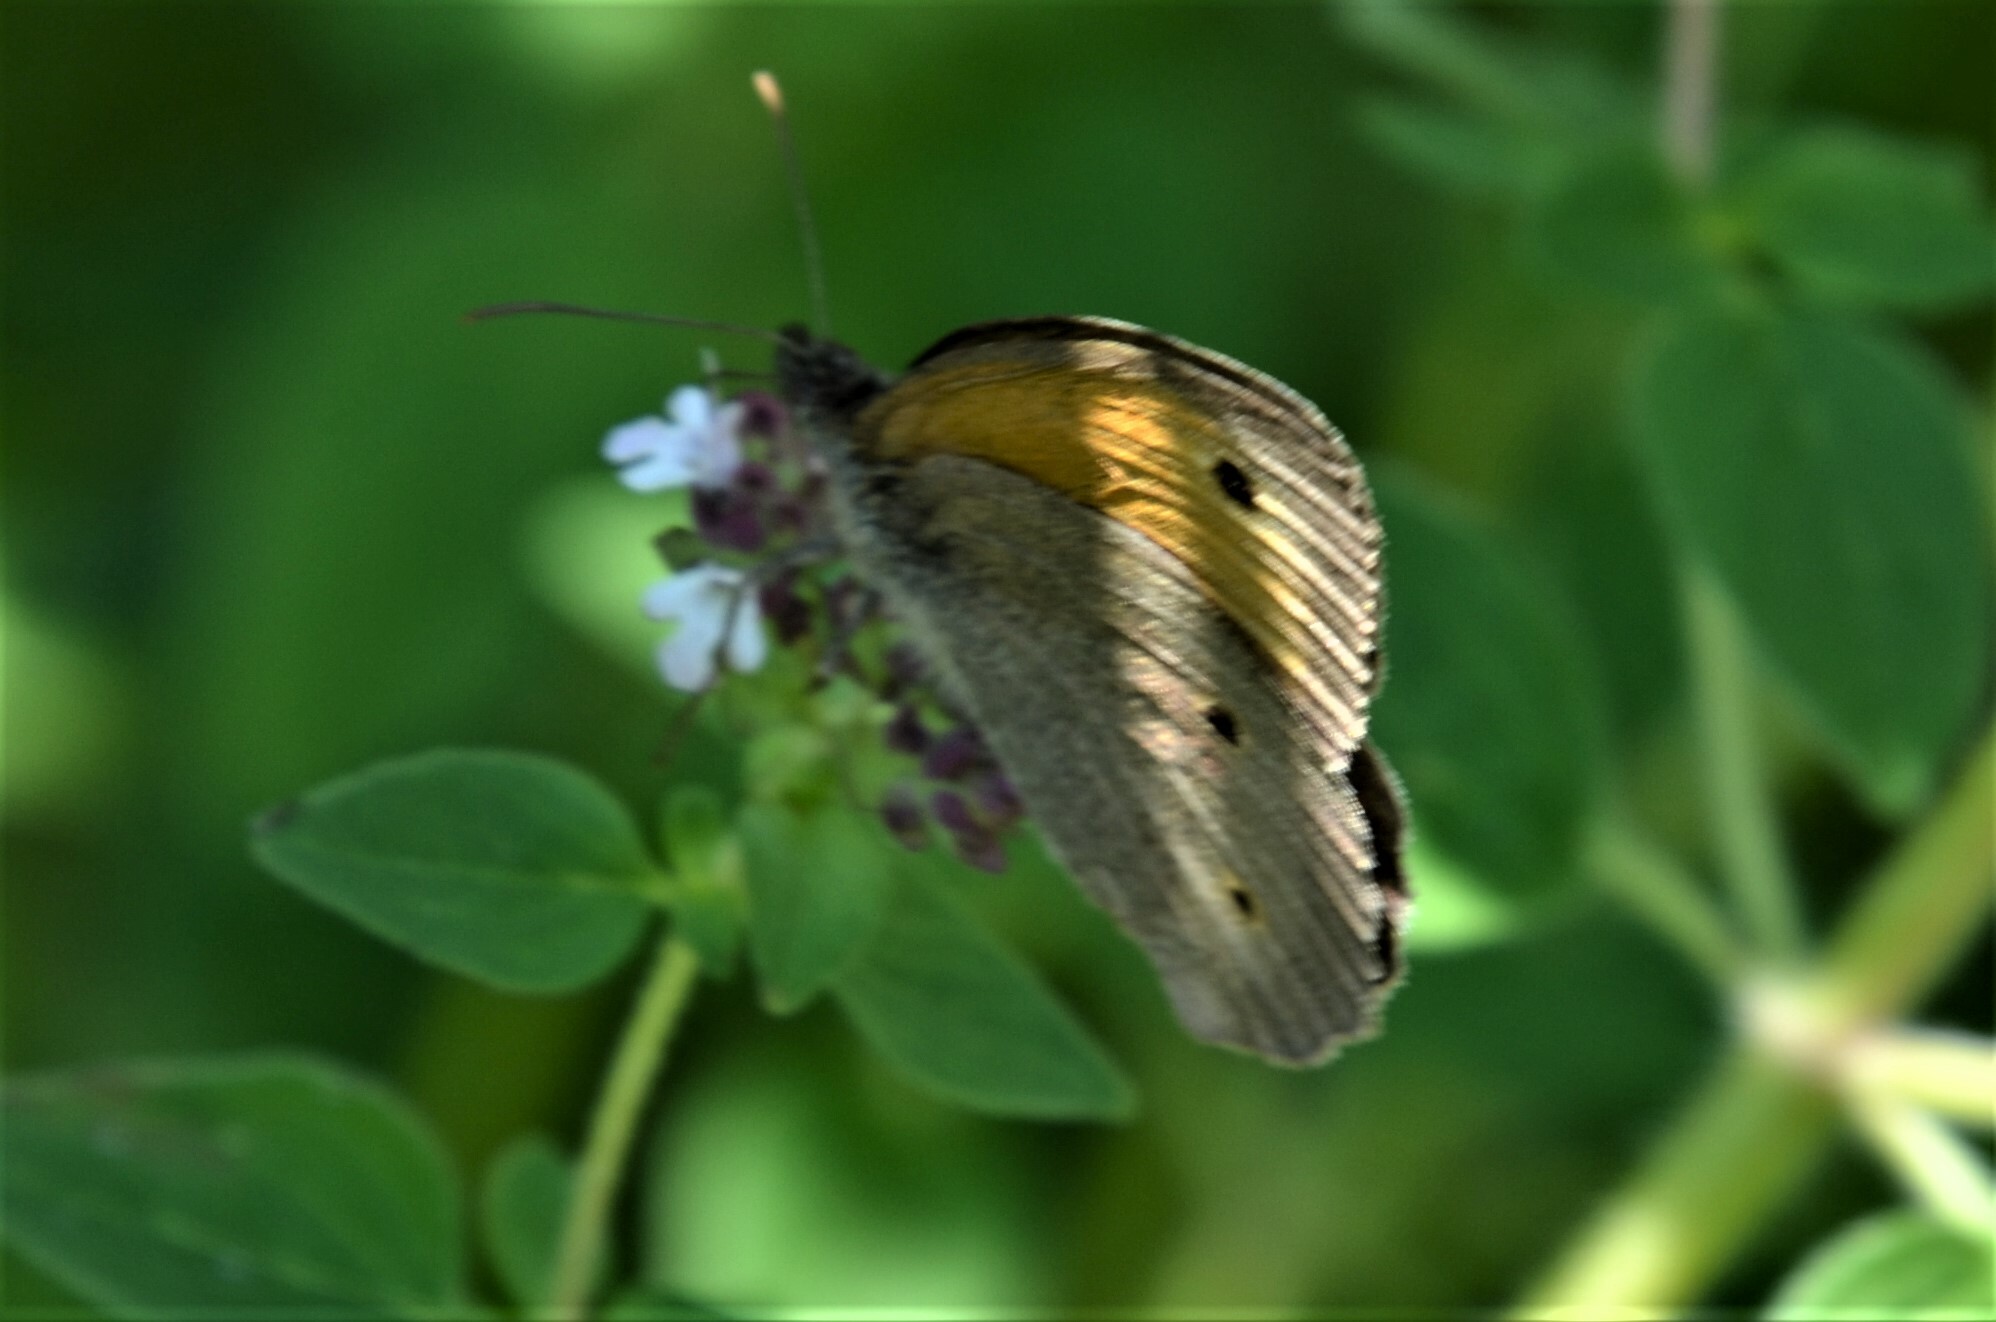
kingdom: Animalia
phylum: Arthropoda
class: Insecta
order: Lepidoptera
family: Nymphalidae
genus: Maniola
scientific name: Maniola jurtina
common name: Meadow brown
